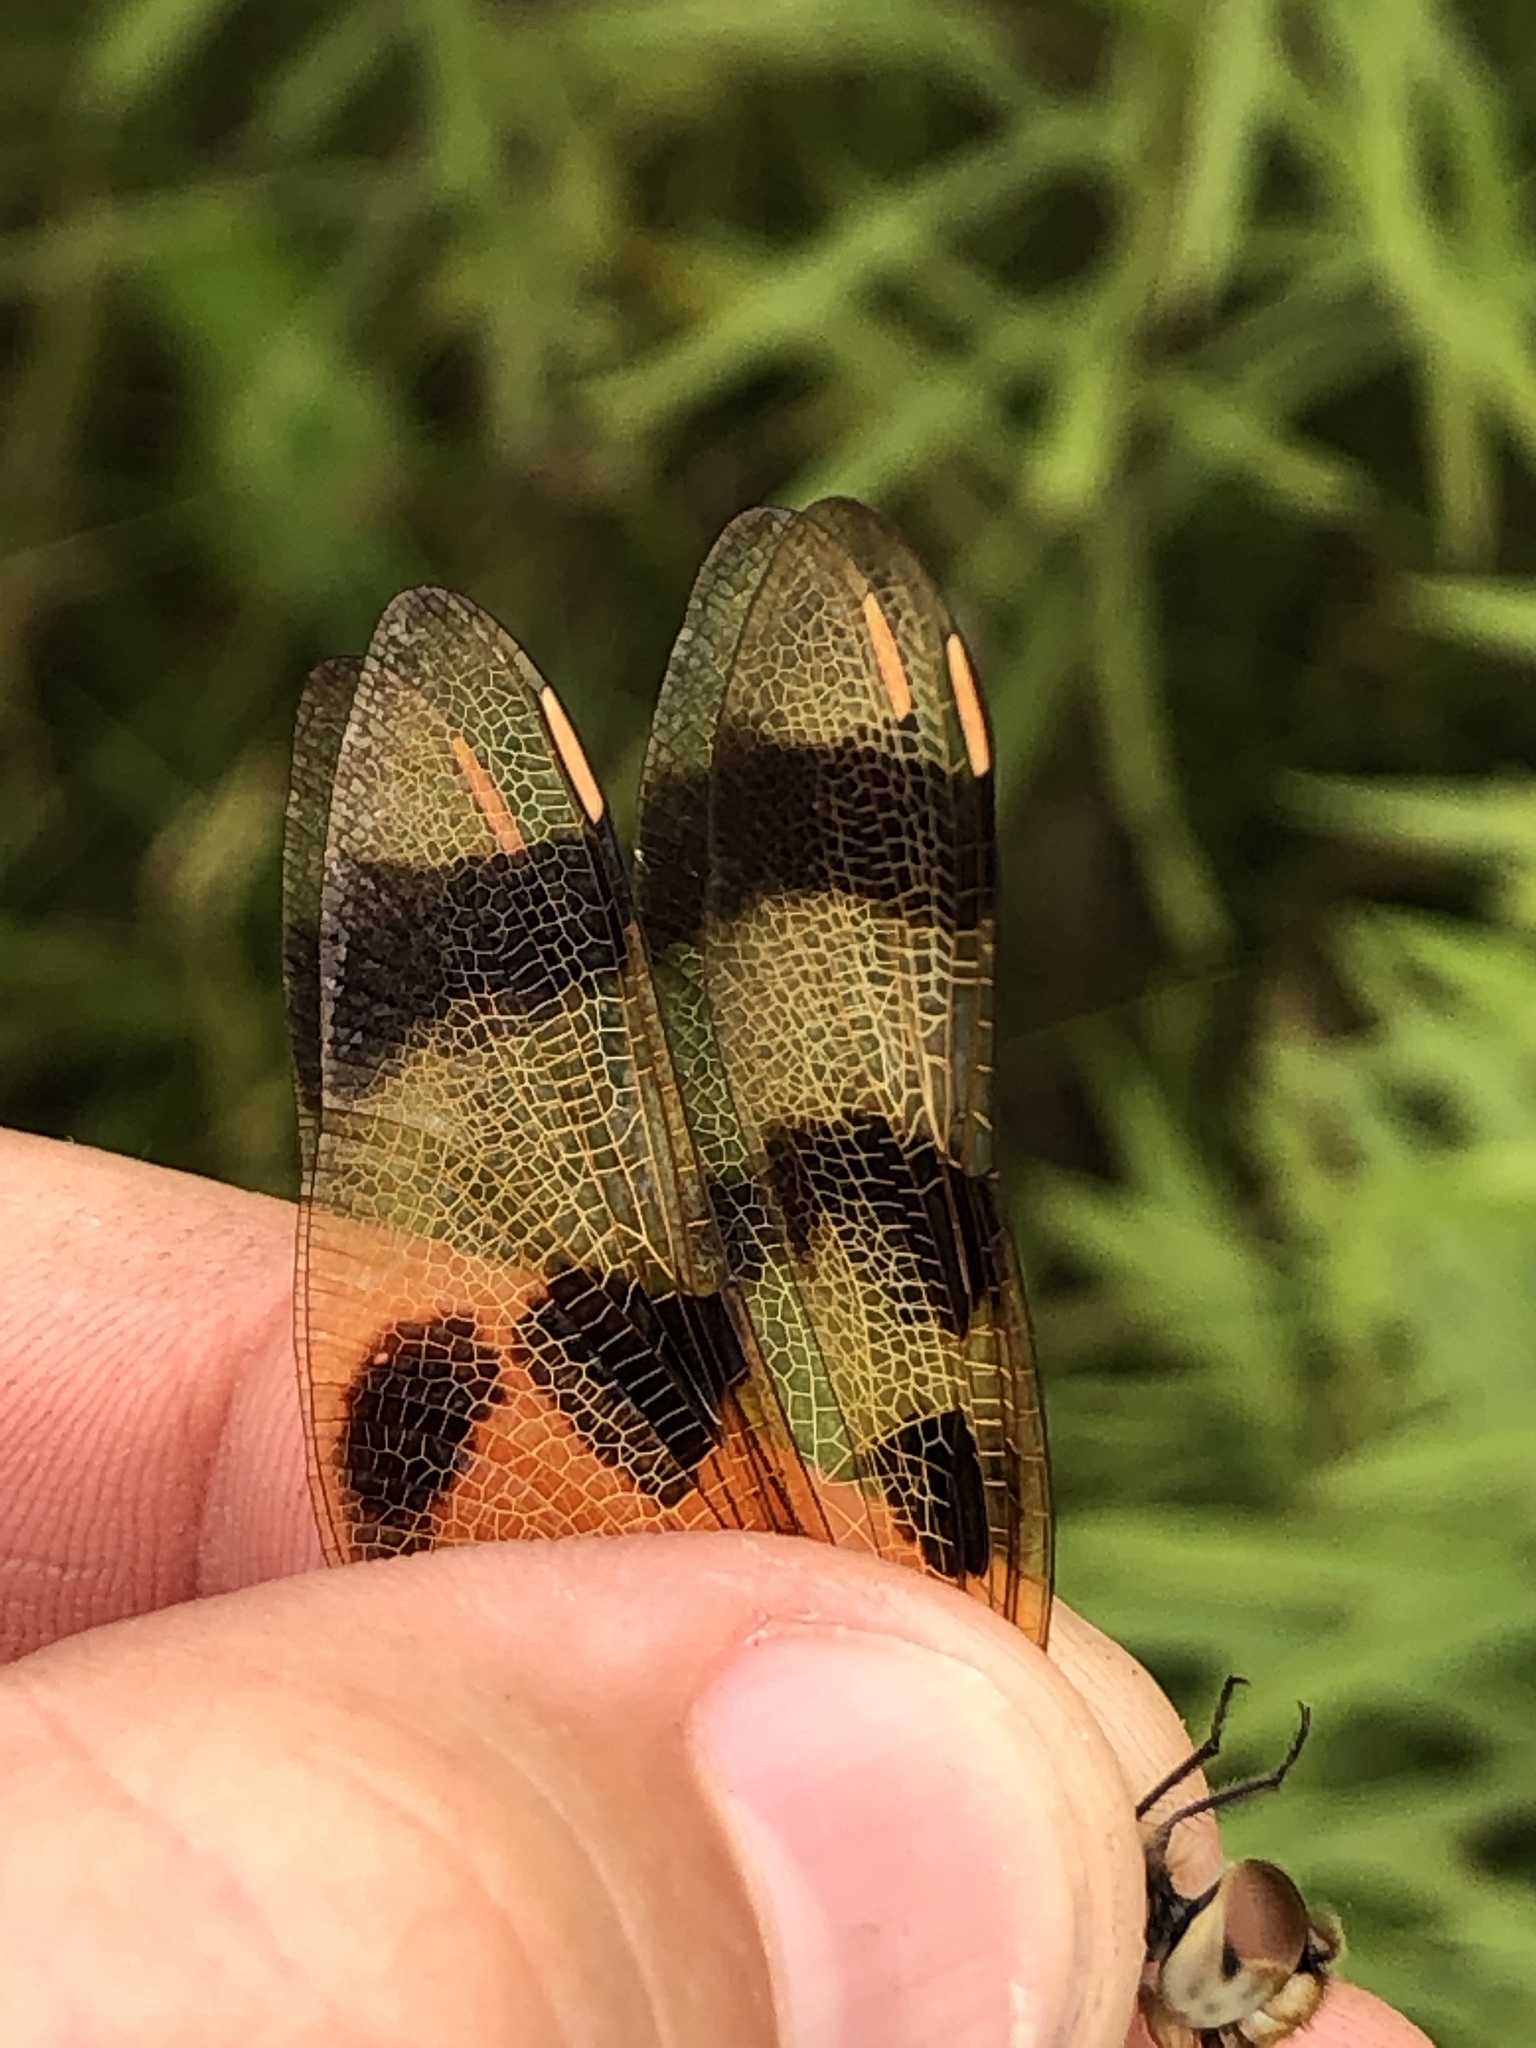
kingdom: Animalia
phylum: Arthropoda
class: Insecta
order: Odonata
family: Libellulidae
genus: Celithemis
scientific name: Celithemis eponina
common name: Halloween pennant
